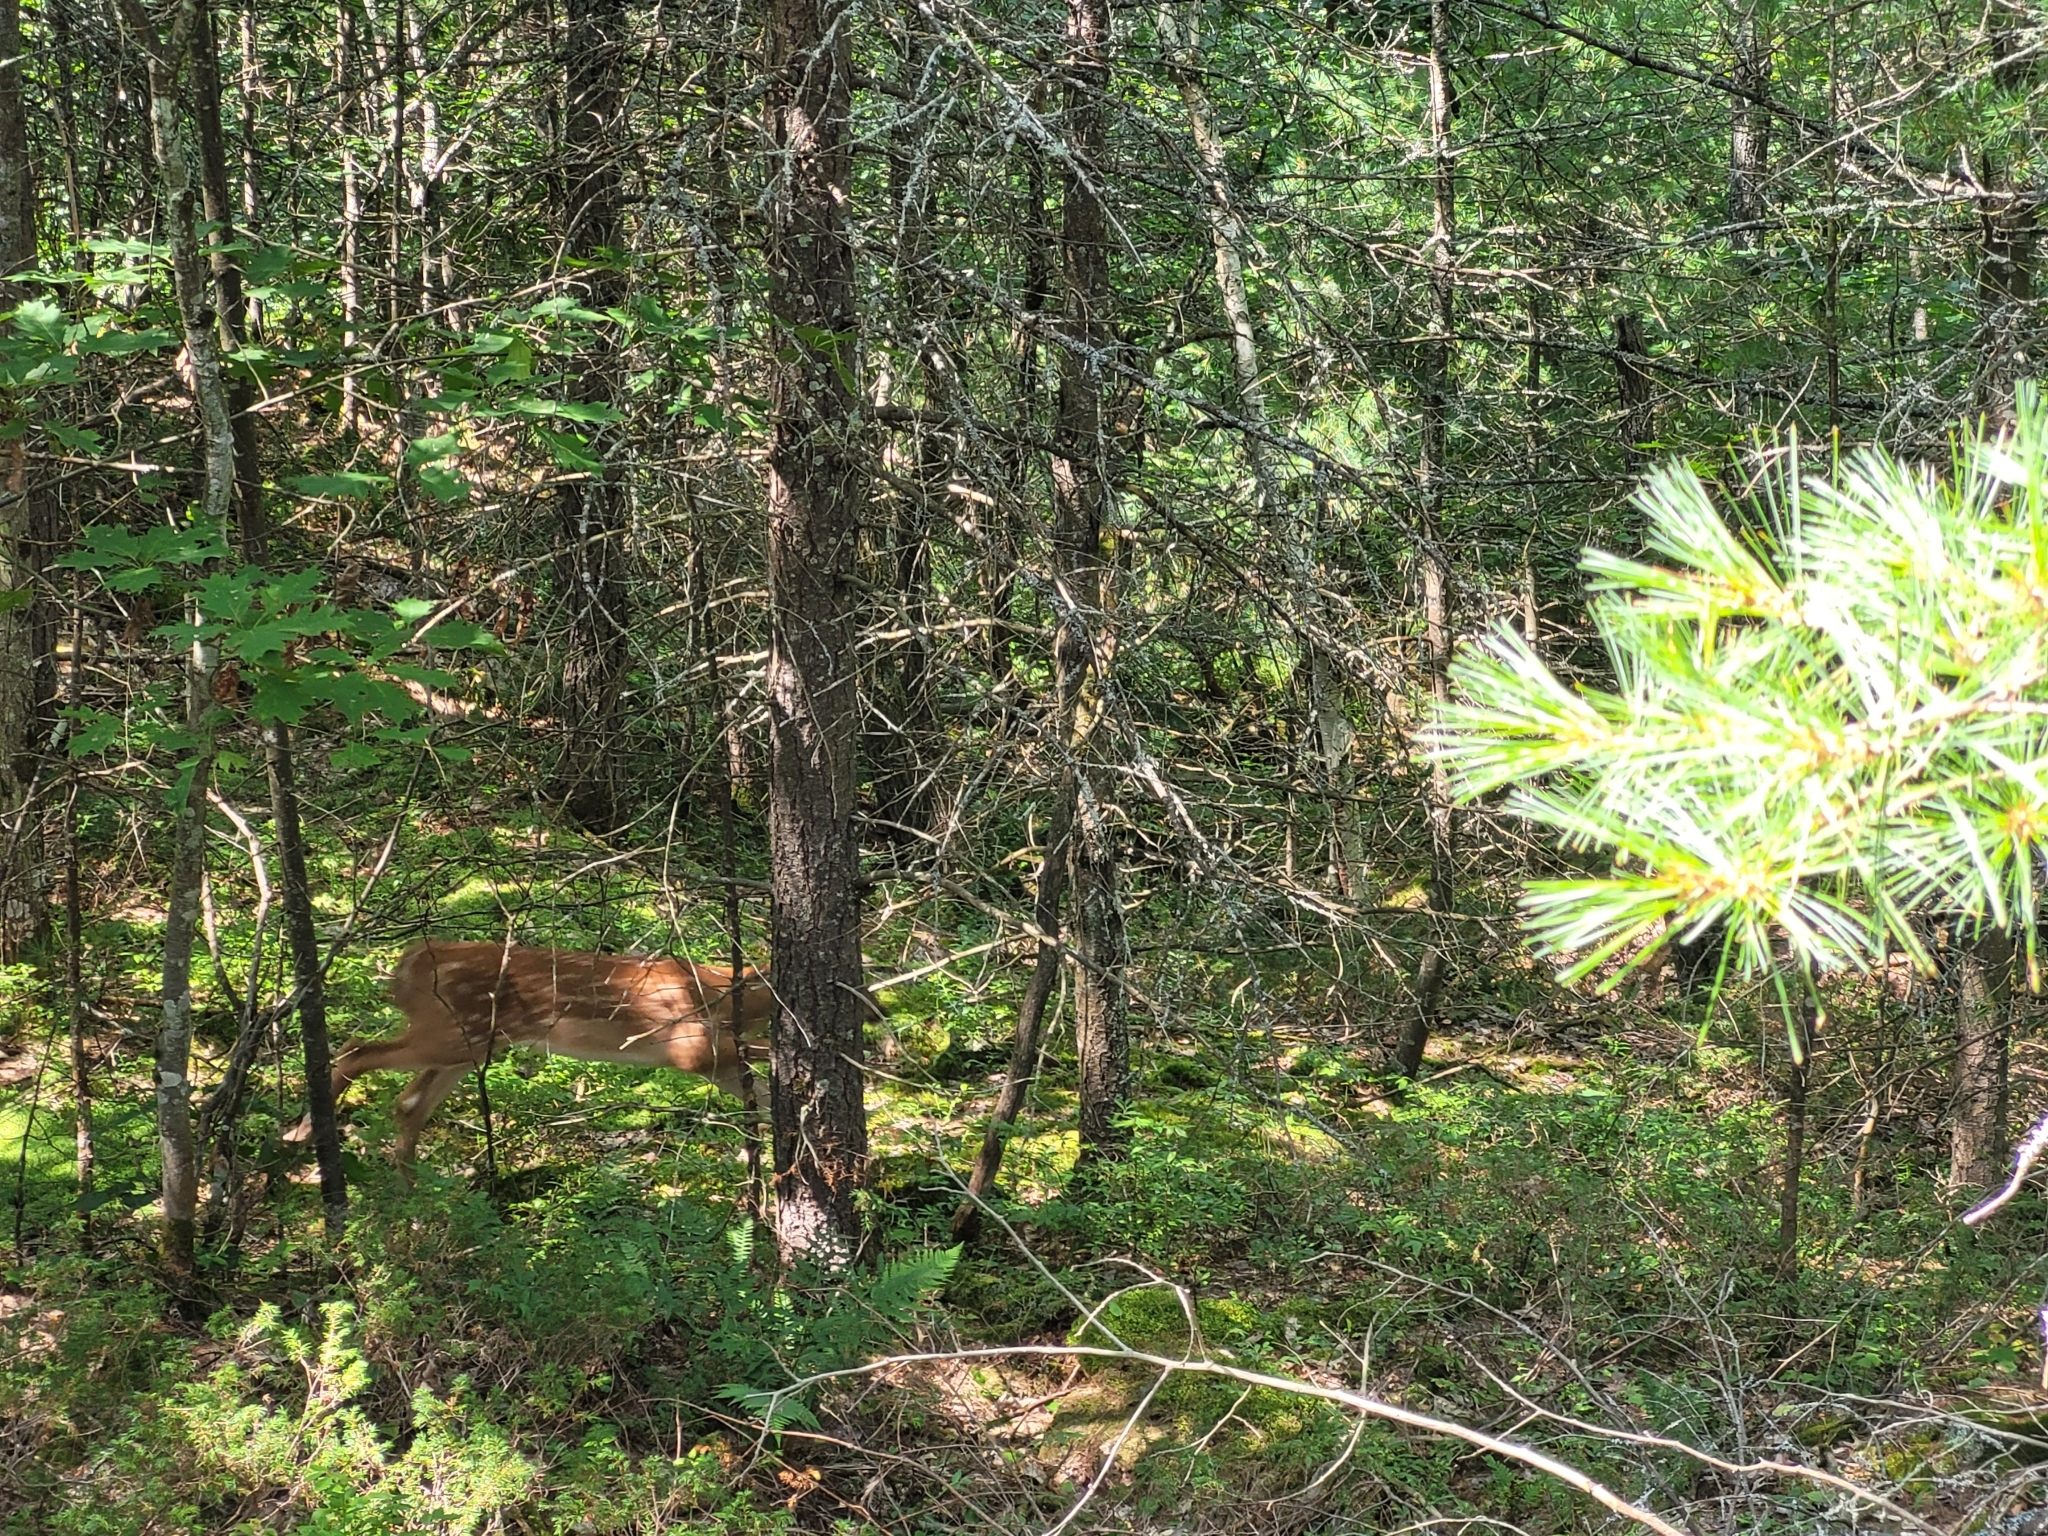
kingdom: Animalia
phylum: Chordata
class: Mammalia
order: Artiodactyla
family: Cervidae
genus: Odocoileus
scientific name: Odocoileus virginianus
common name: White-tailed deer
